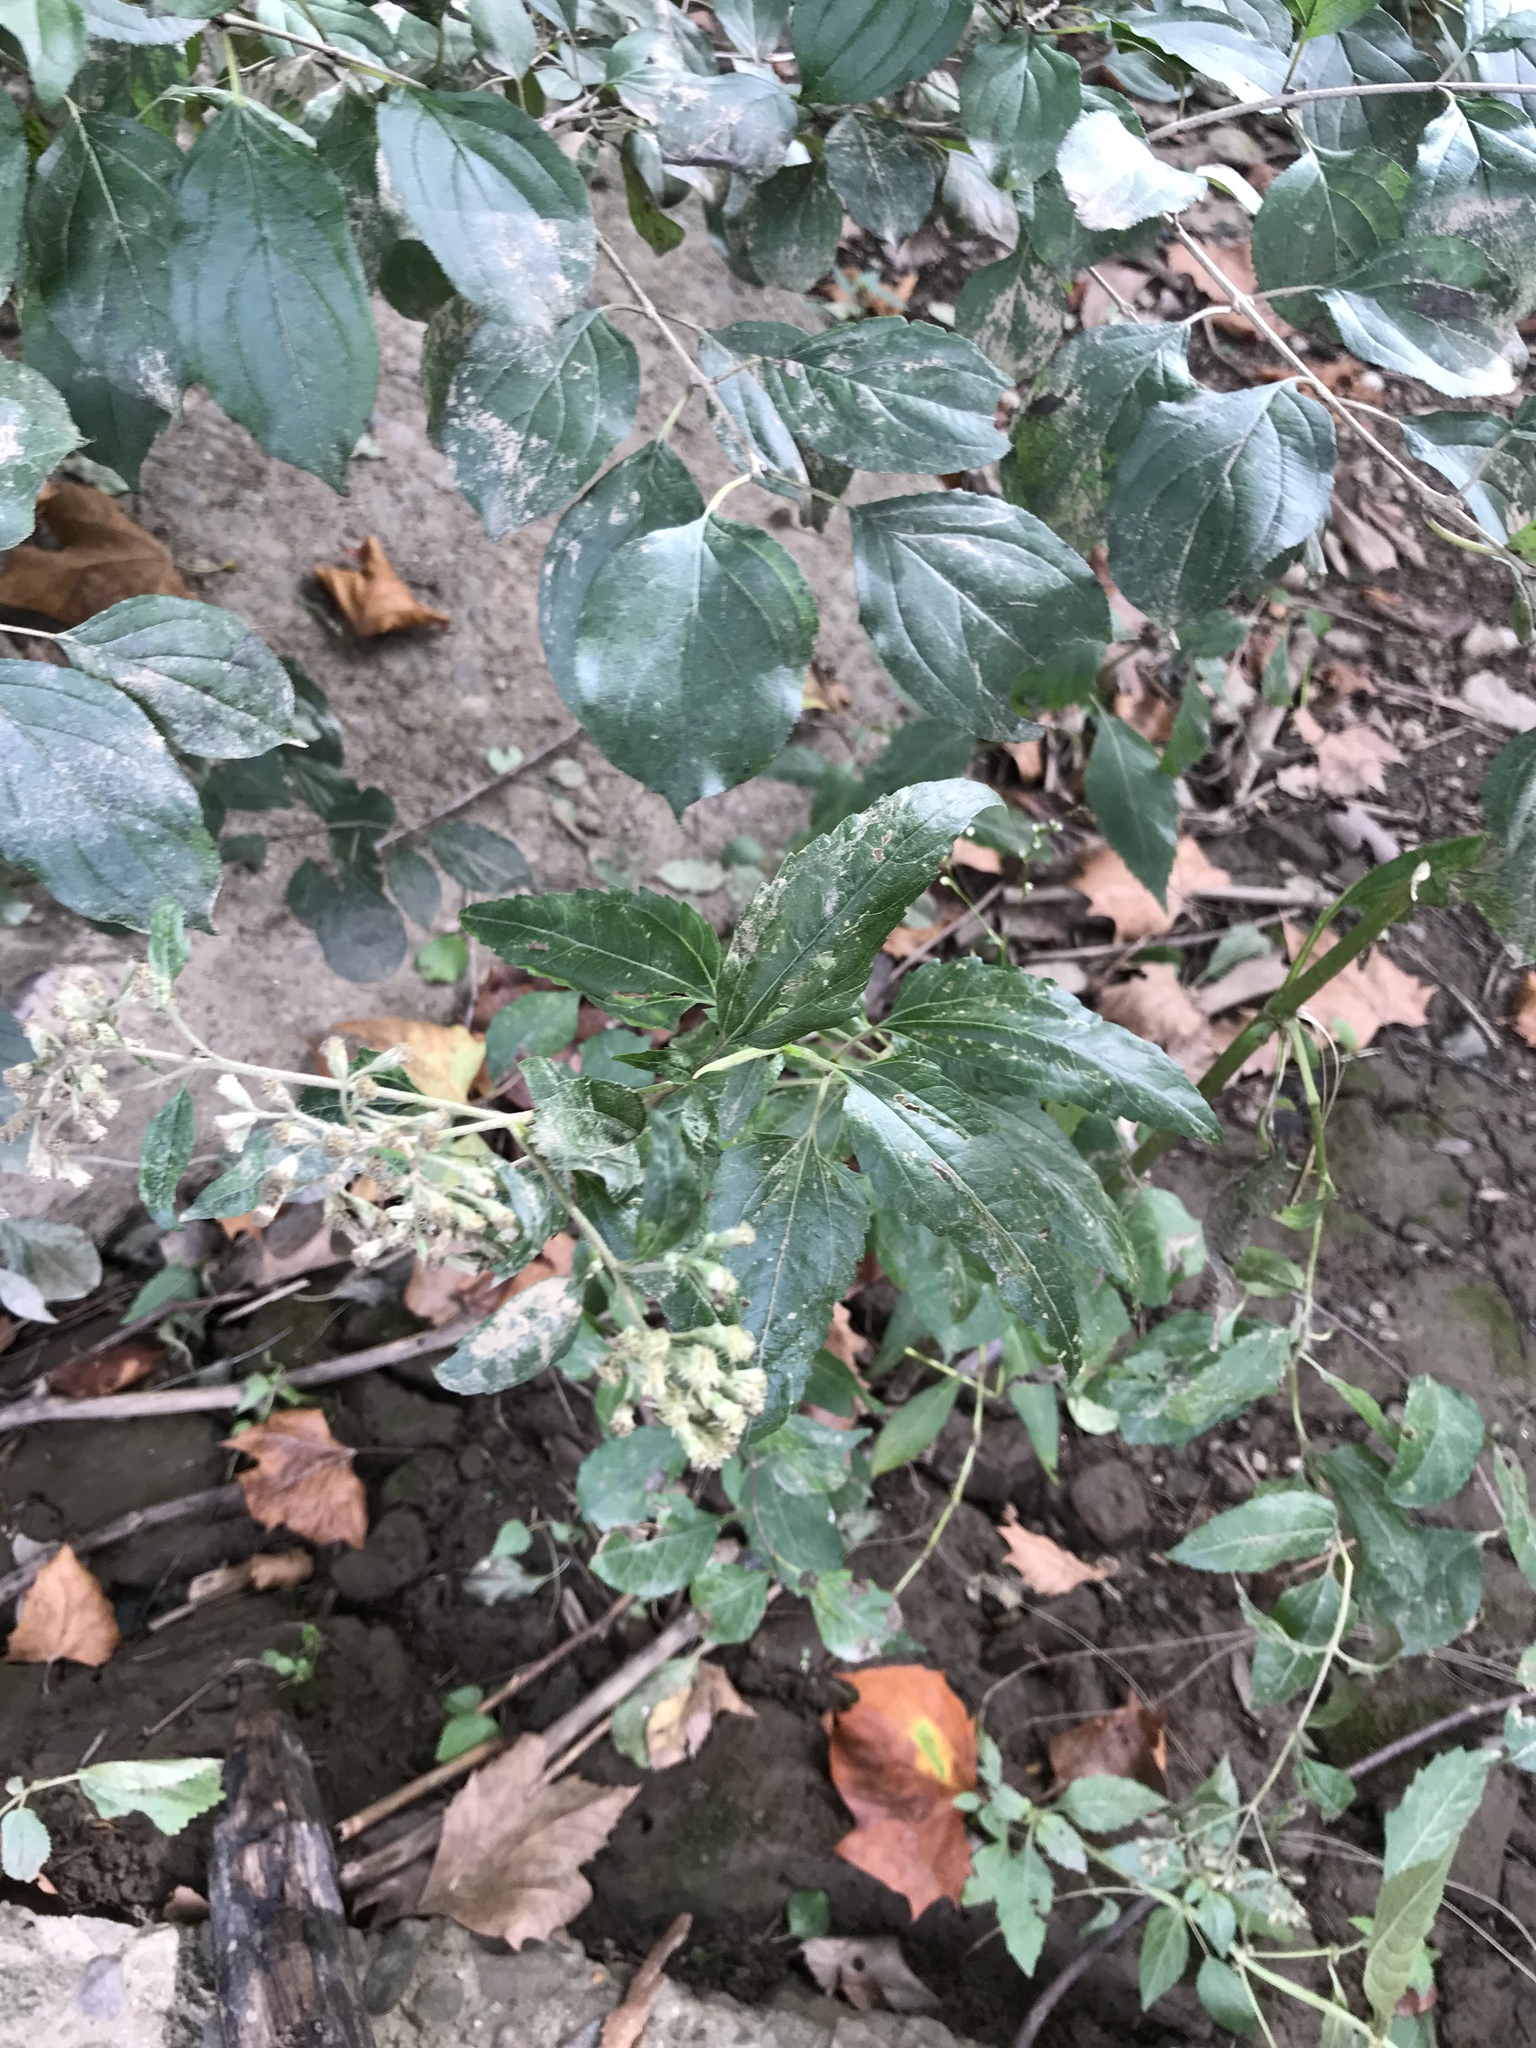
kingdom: Plantae
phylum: Tracheophyta
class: Magnoliopsida
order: Asterales
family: Asteraceae
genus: Eupatorium
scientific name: Eupatorium serotinum
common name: Late boneset
